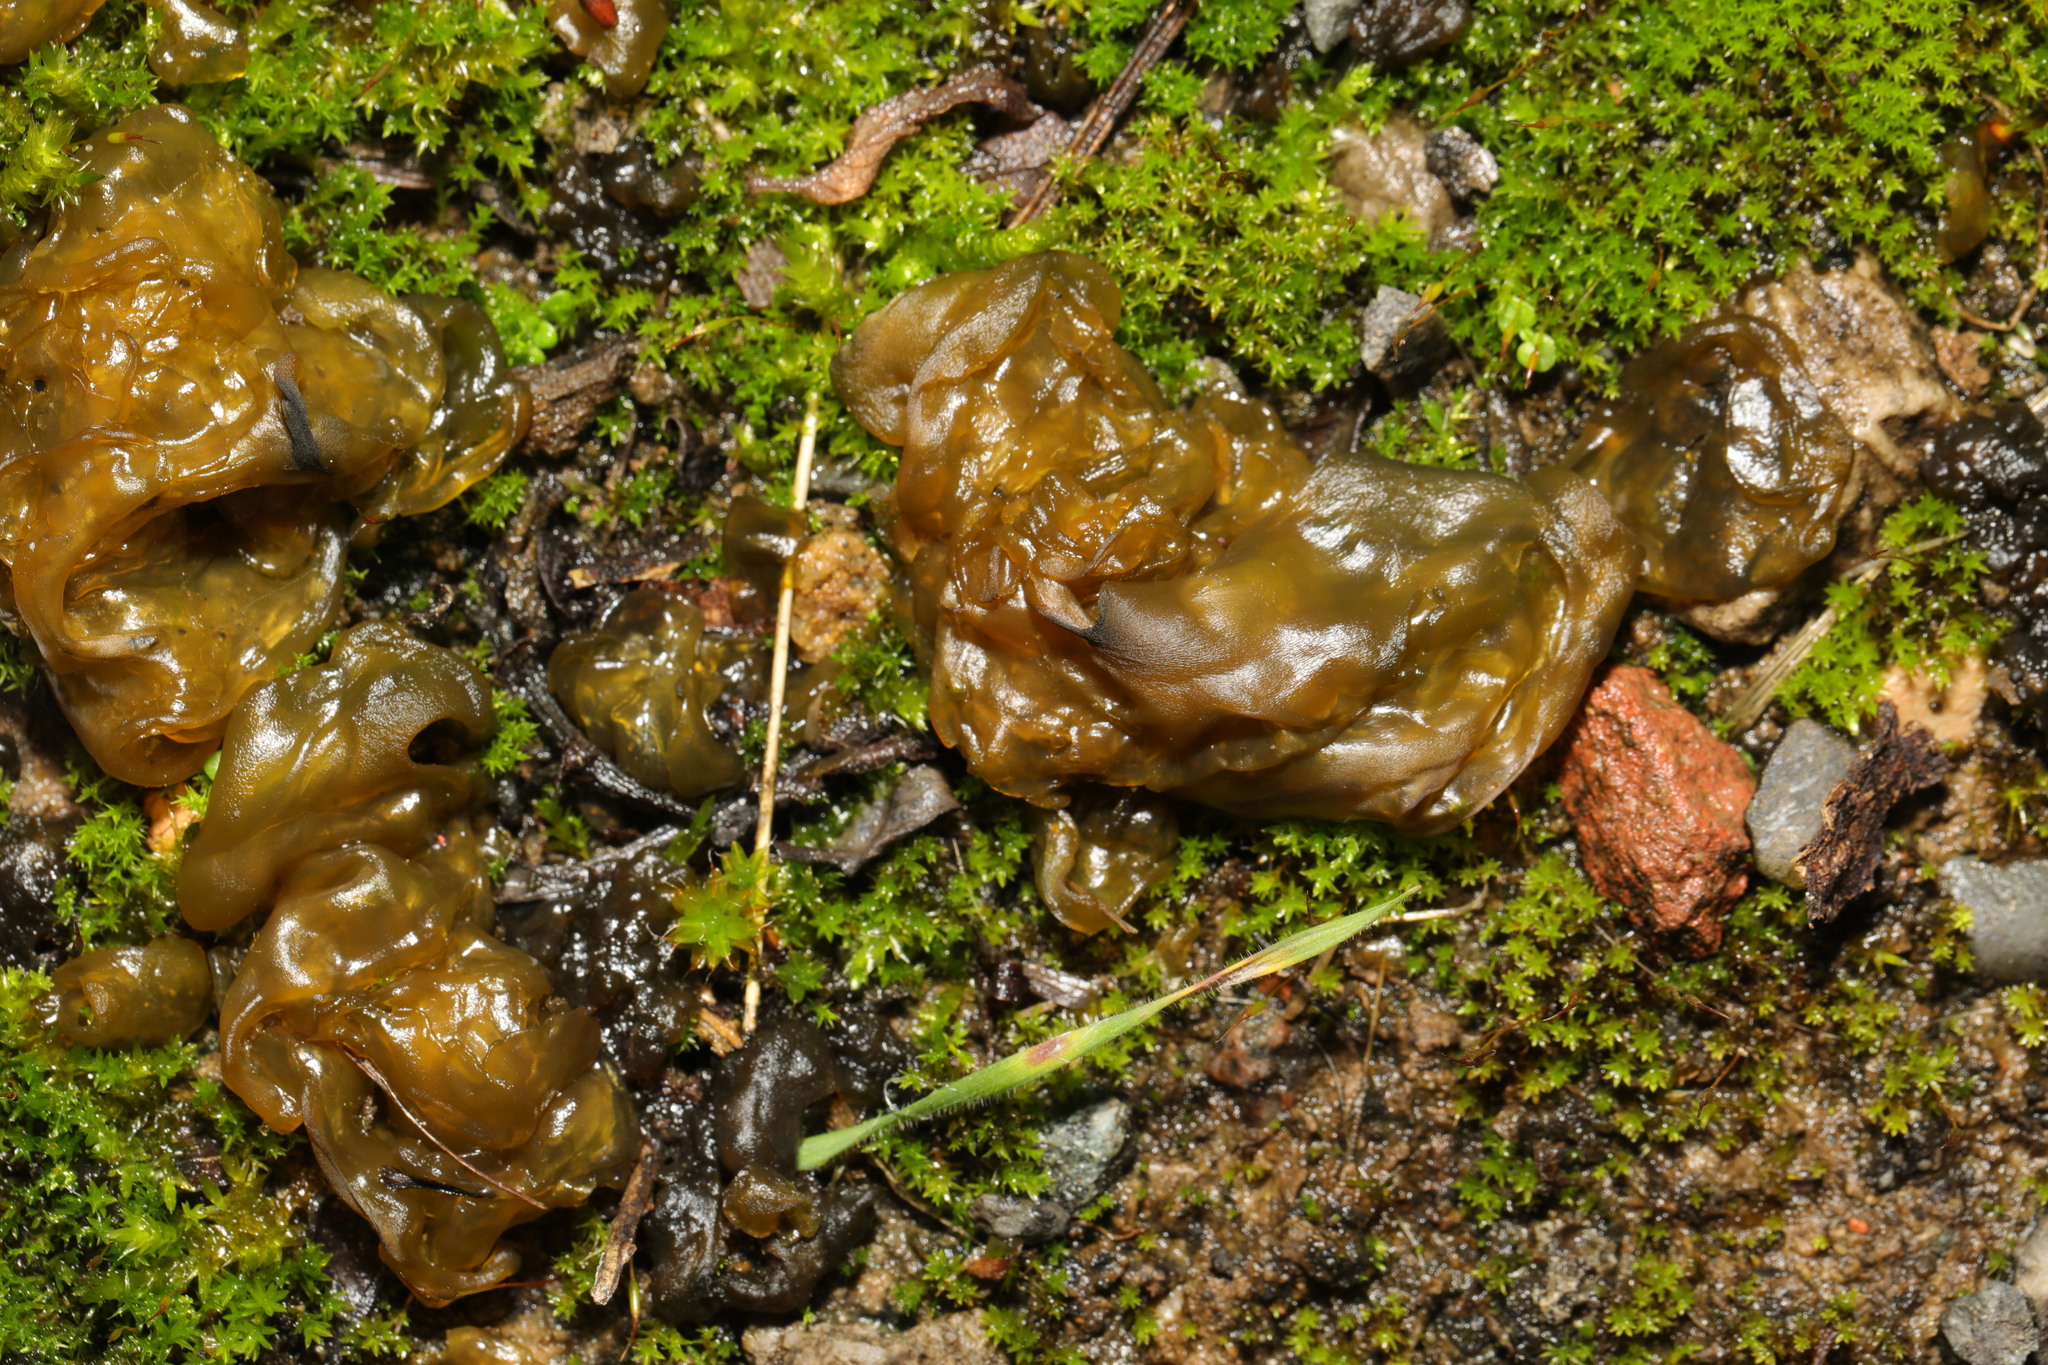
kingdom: Bacteria
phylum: Cyanobacteria
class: Cyanobacteriia
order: Cyanobacteriales
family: Nostocaceae
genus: Nostoc
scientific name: Nostoc commune
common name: Star jelly
